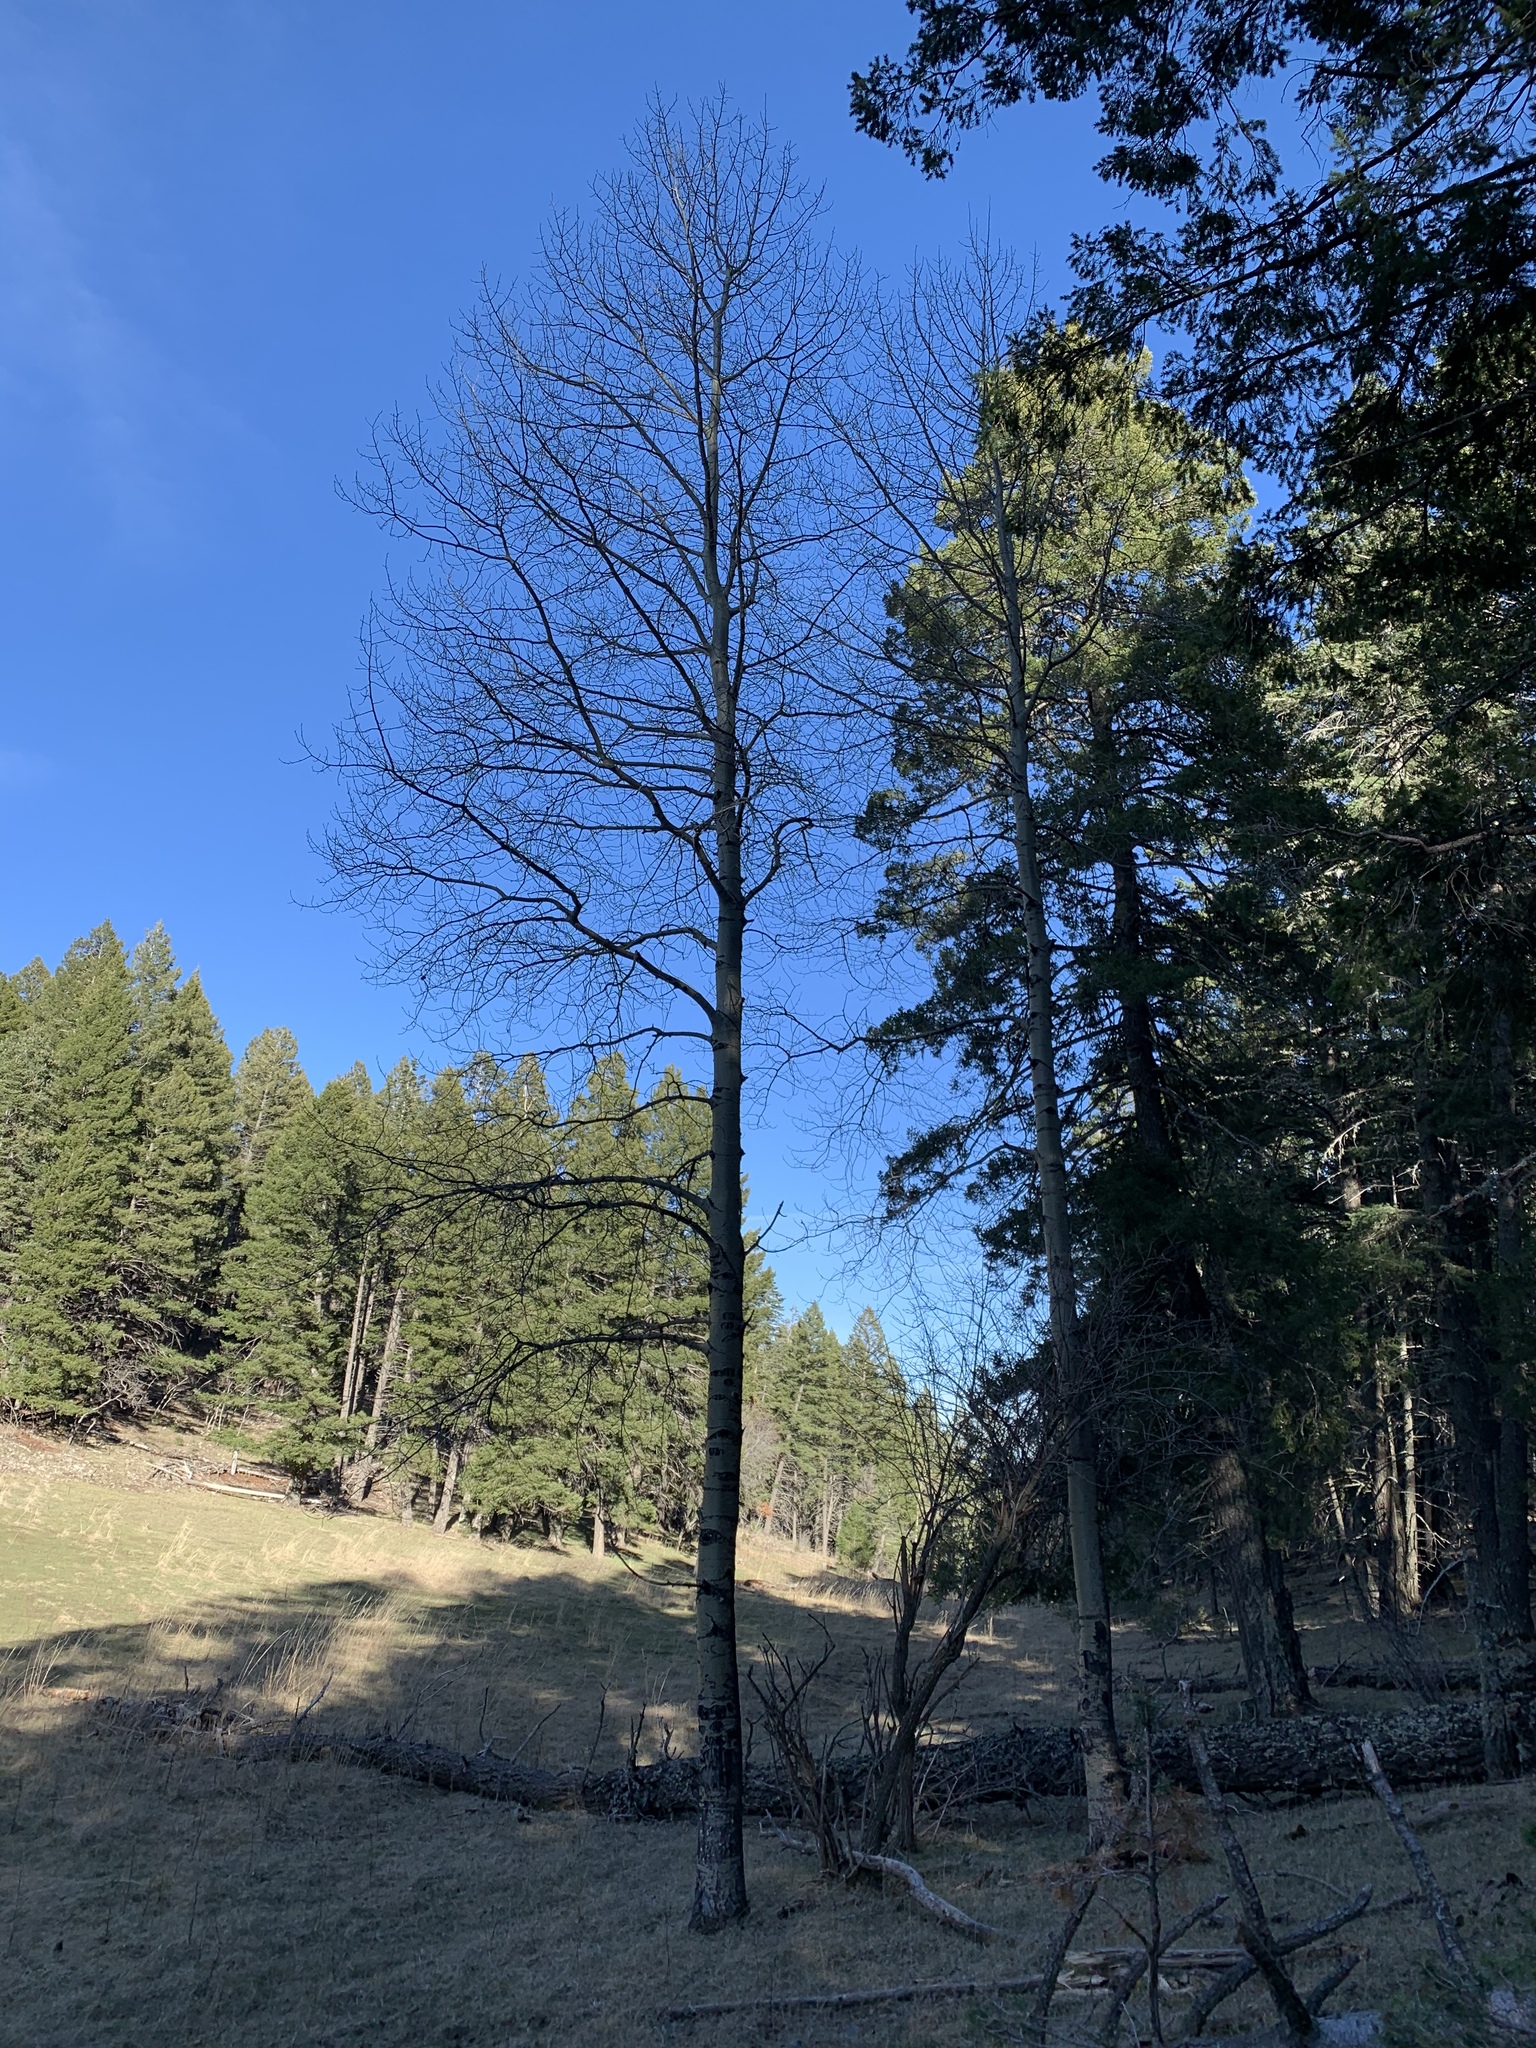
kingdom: Plantae
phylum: Tracheophyta
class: Magnoliopsida
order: Malpighiales
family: Salicaceae
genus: Populus
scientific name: Populus tremuloides
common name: Quaking aspen
